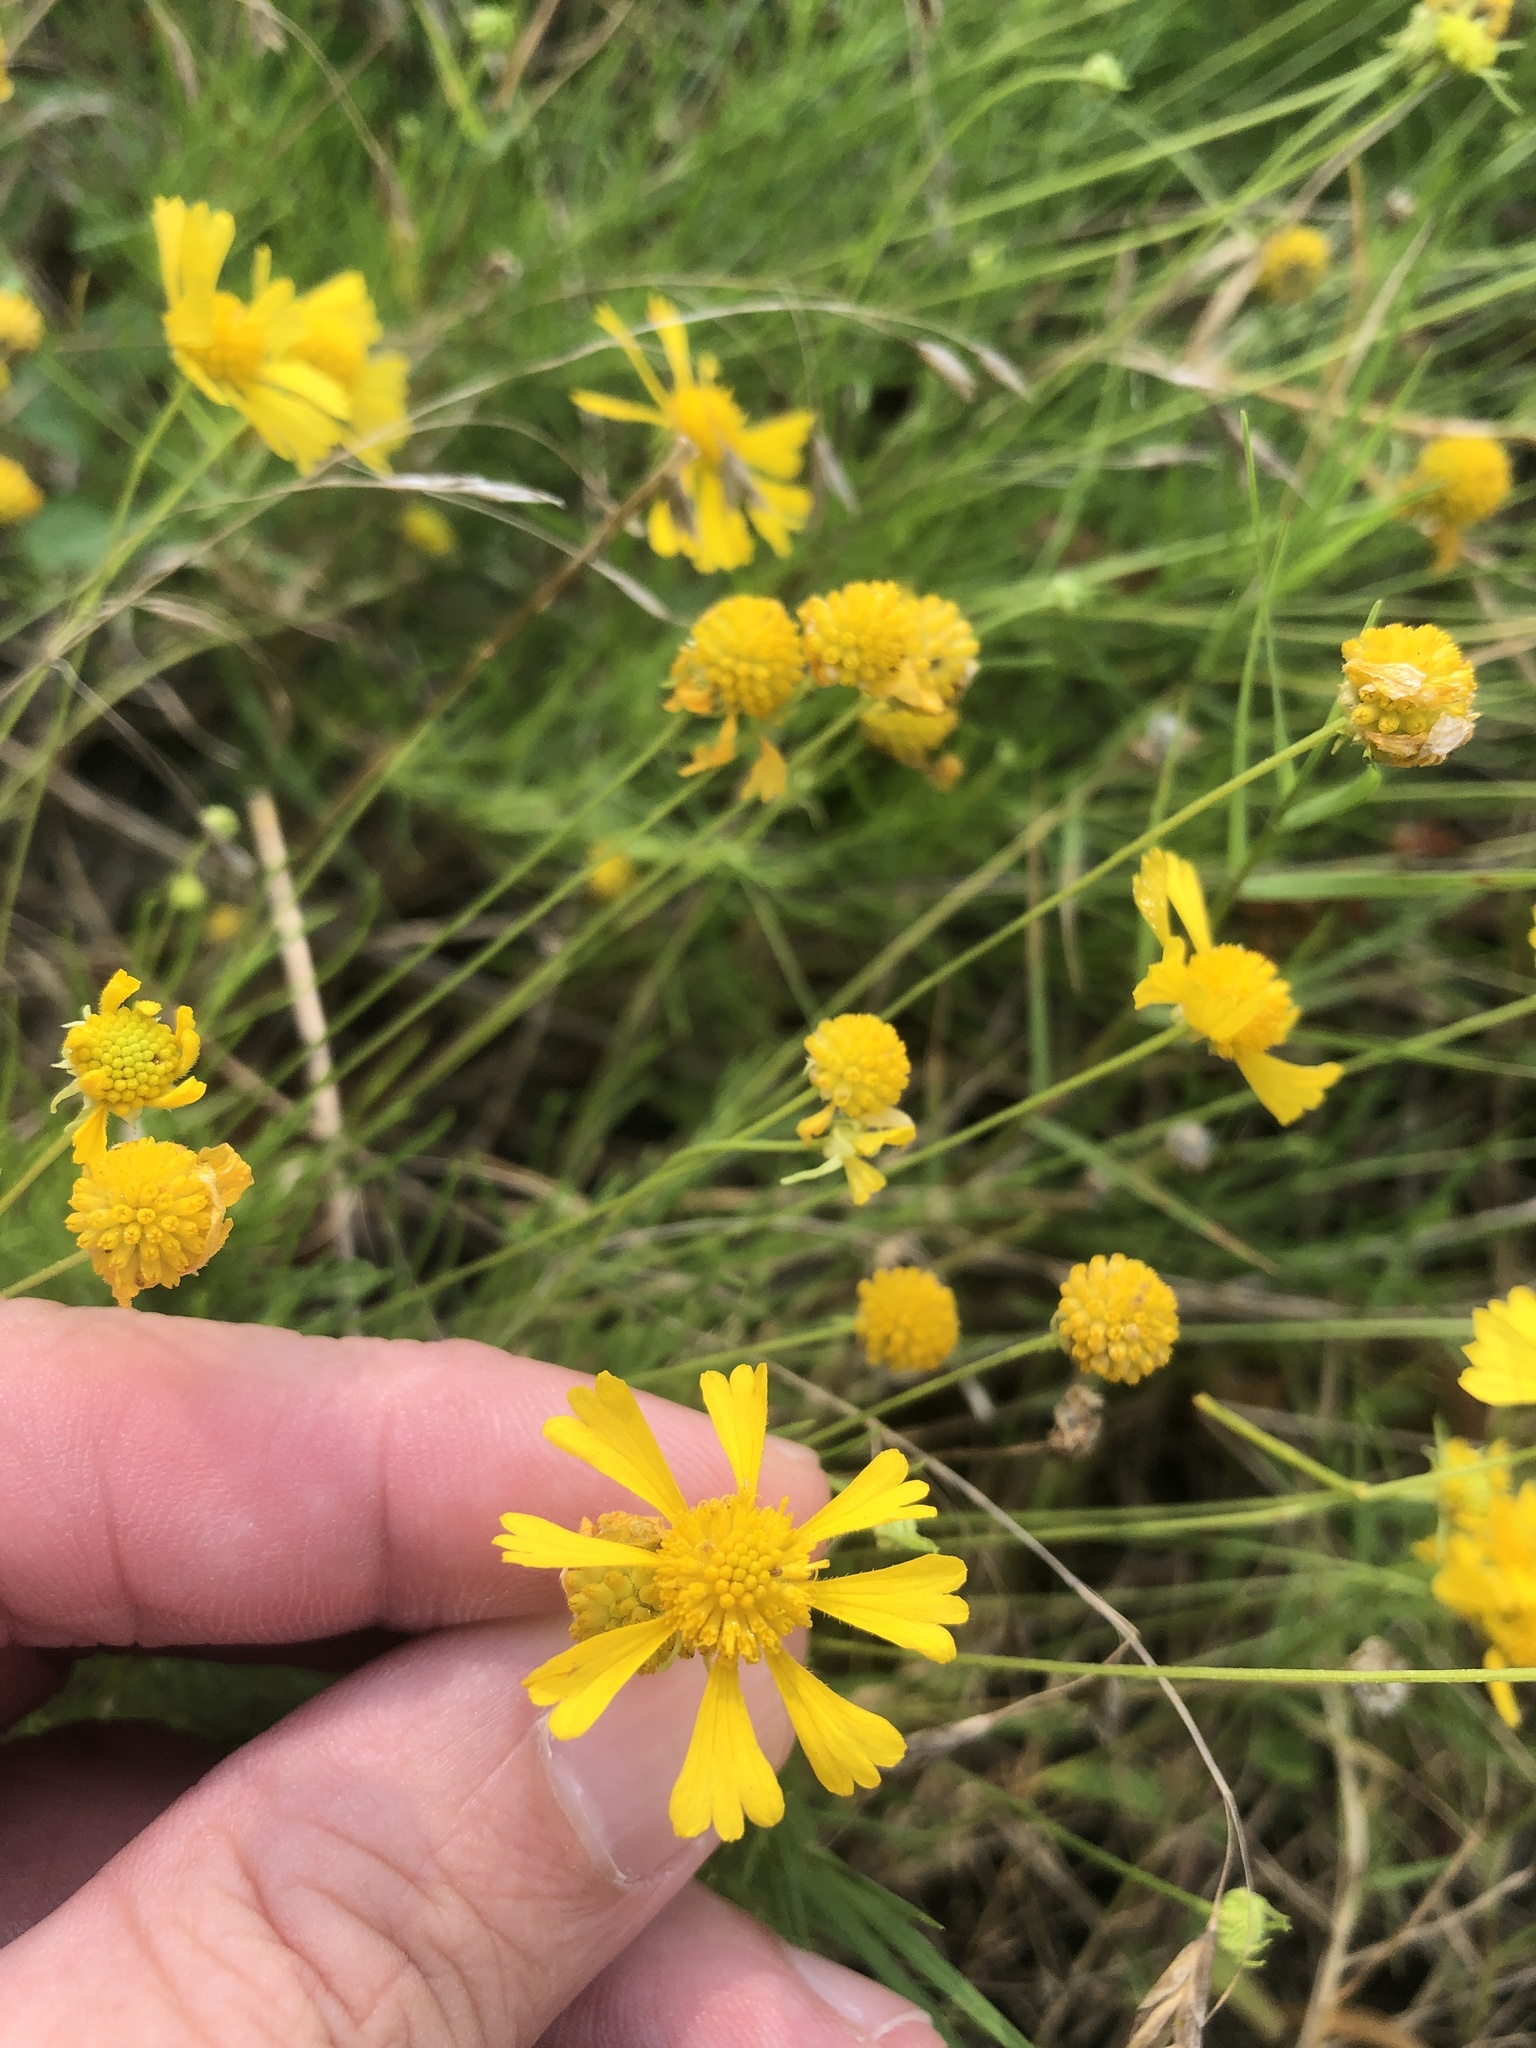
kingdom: Plantae
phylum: Tracheophyta
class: Magnoliopsida
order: Asterales
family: Asteraceae
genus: Helenium
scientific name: Helenium amarum
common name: Bitter sneezeweed
